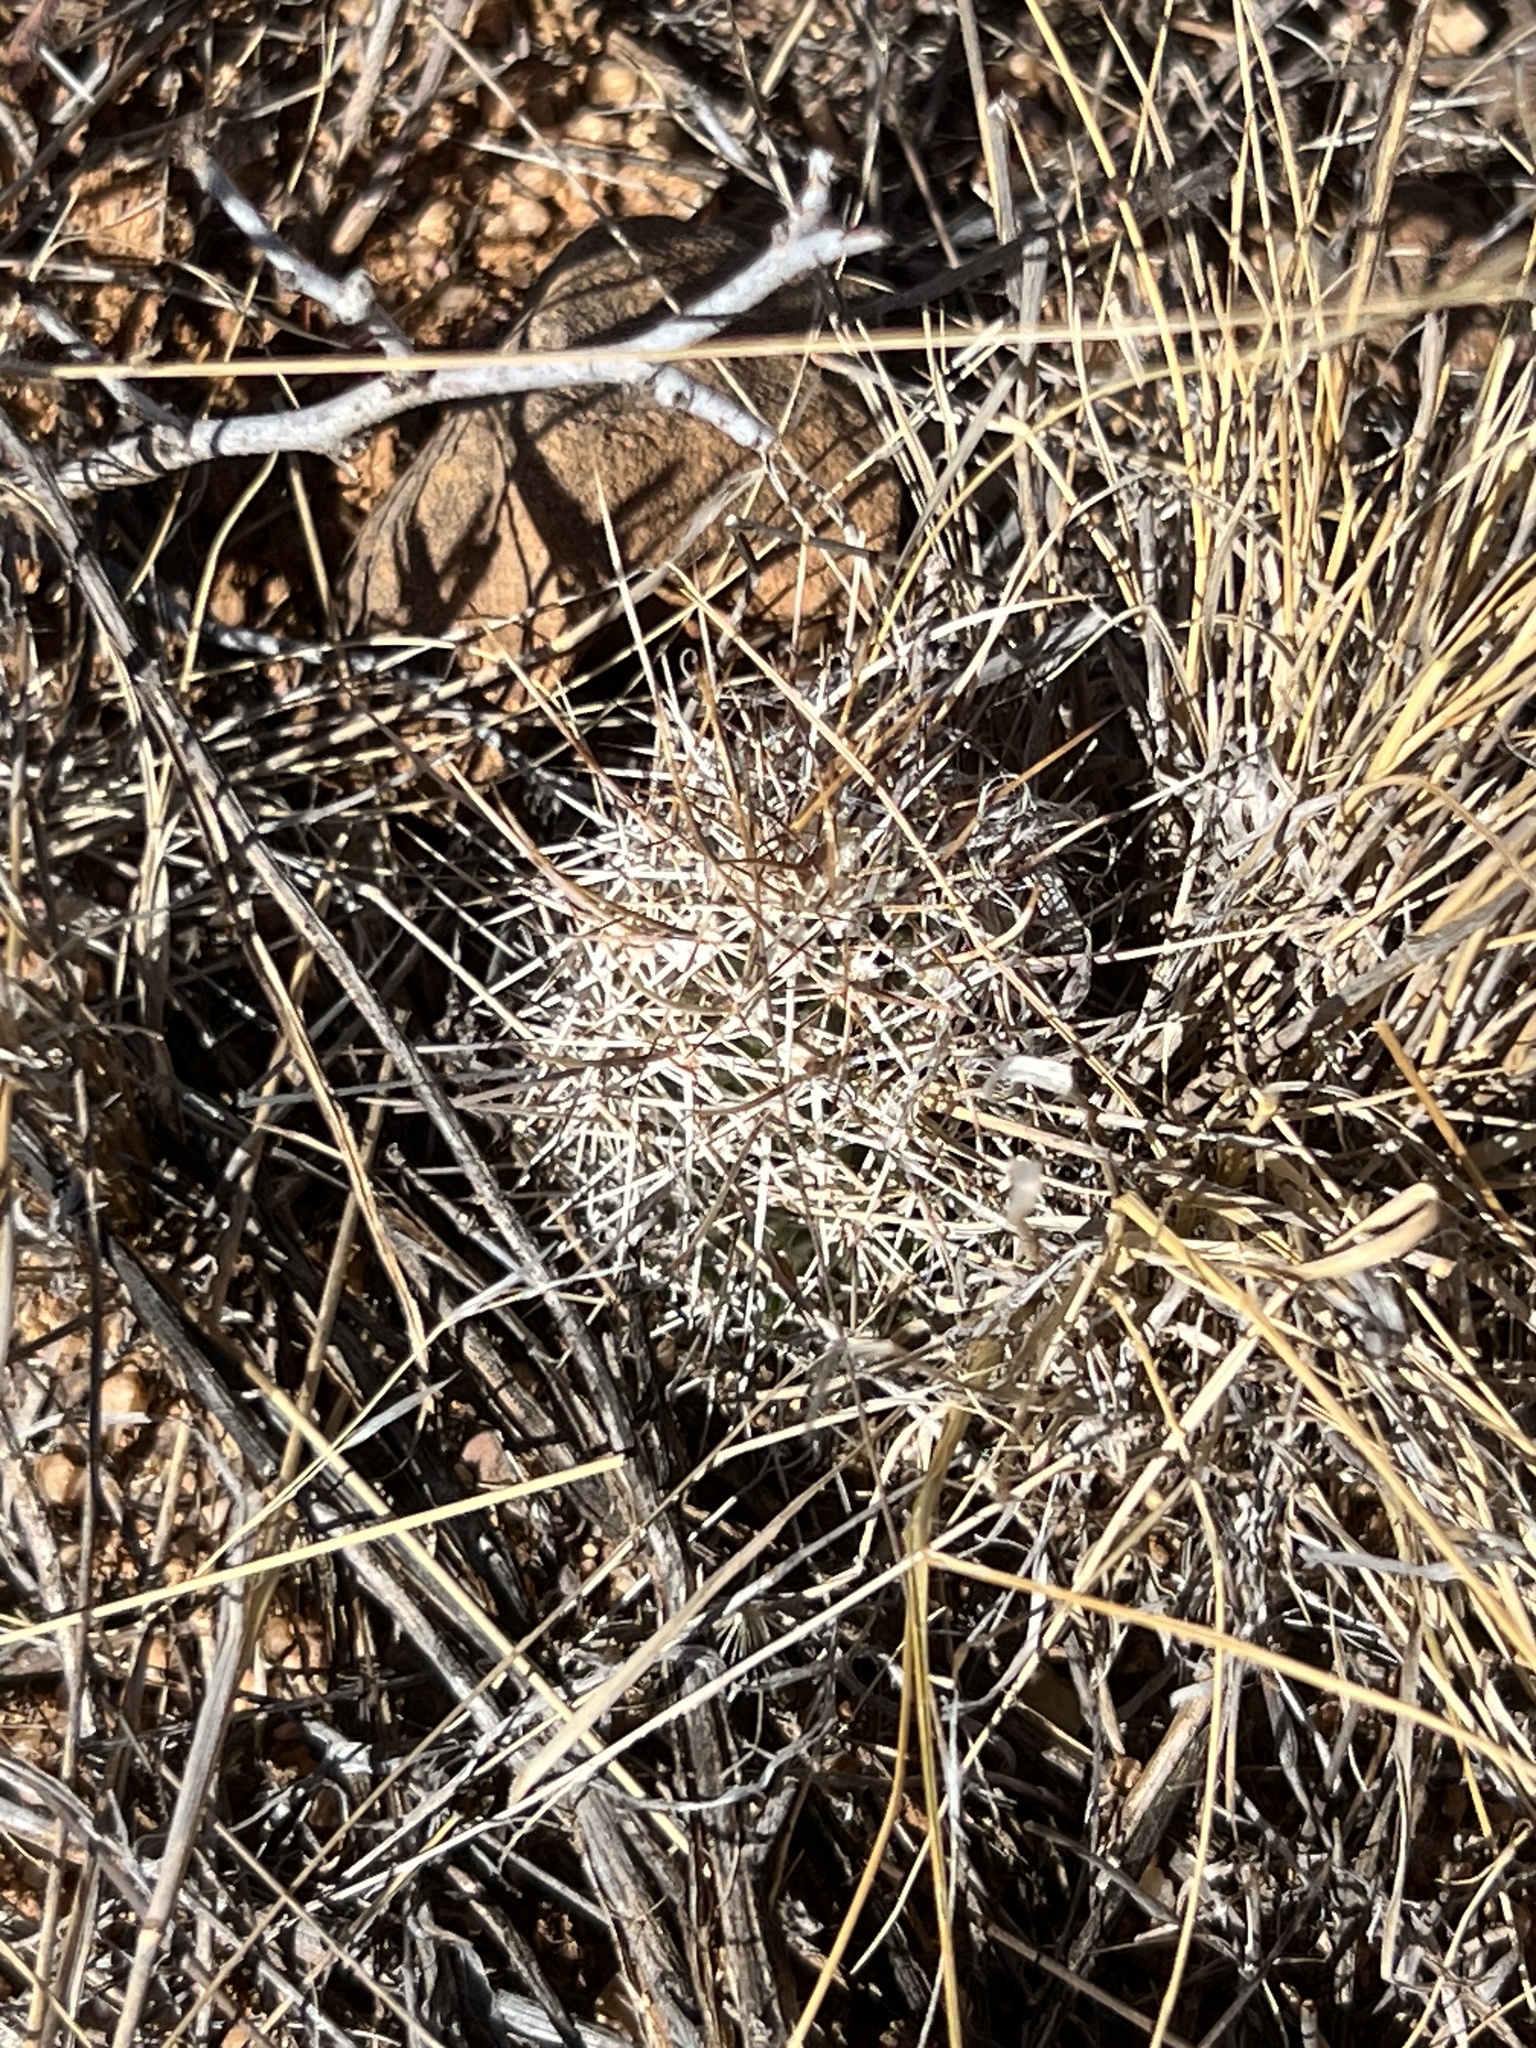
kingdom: Plantae
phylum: Tracheophyta
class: Magnoliopsida
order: Caryophyllales
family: Cactaceae
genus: Echinocereus
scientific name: Echinocereus fasciculatus
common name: Bundle hedgehog
